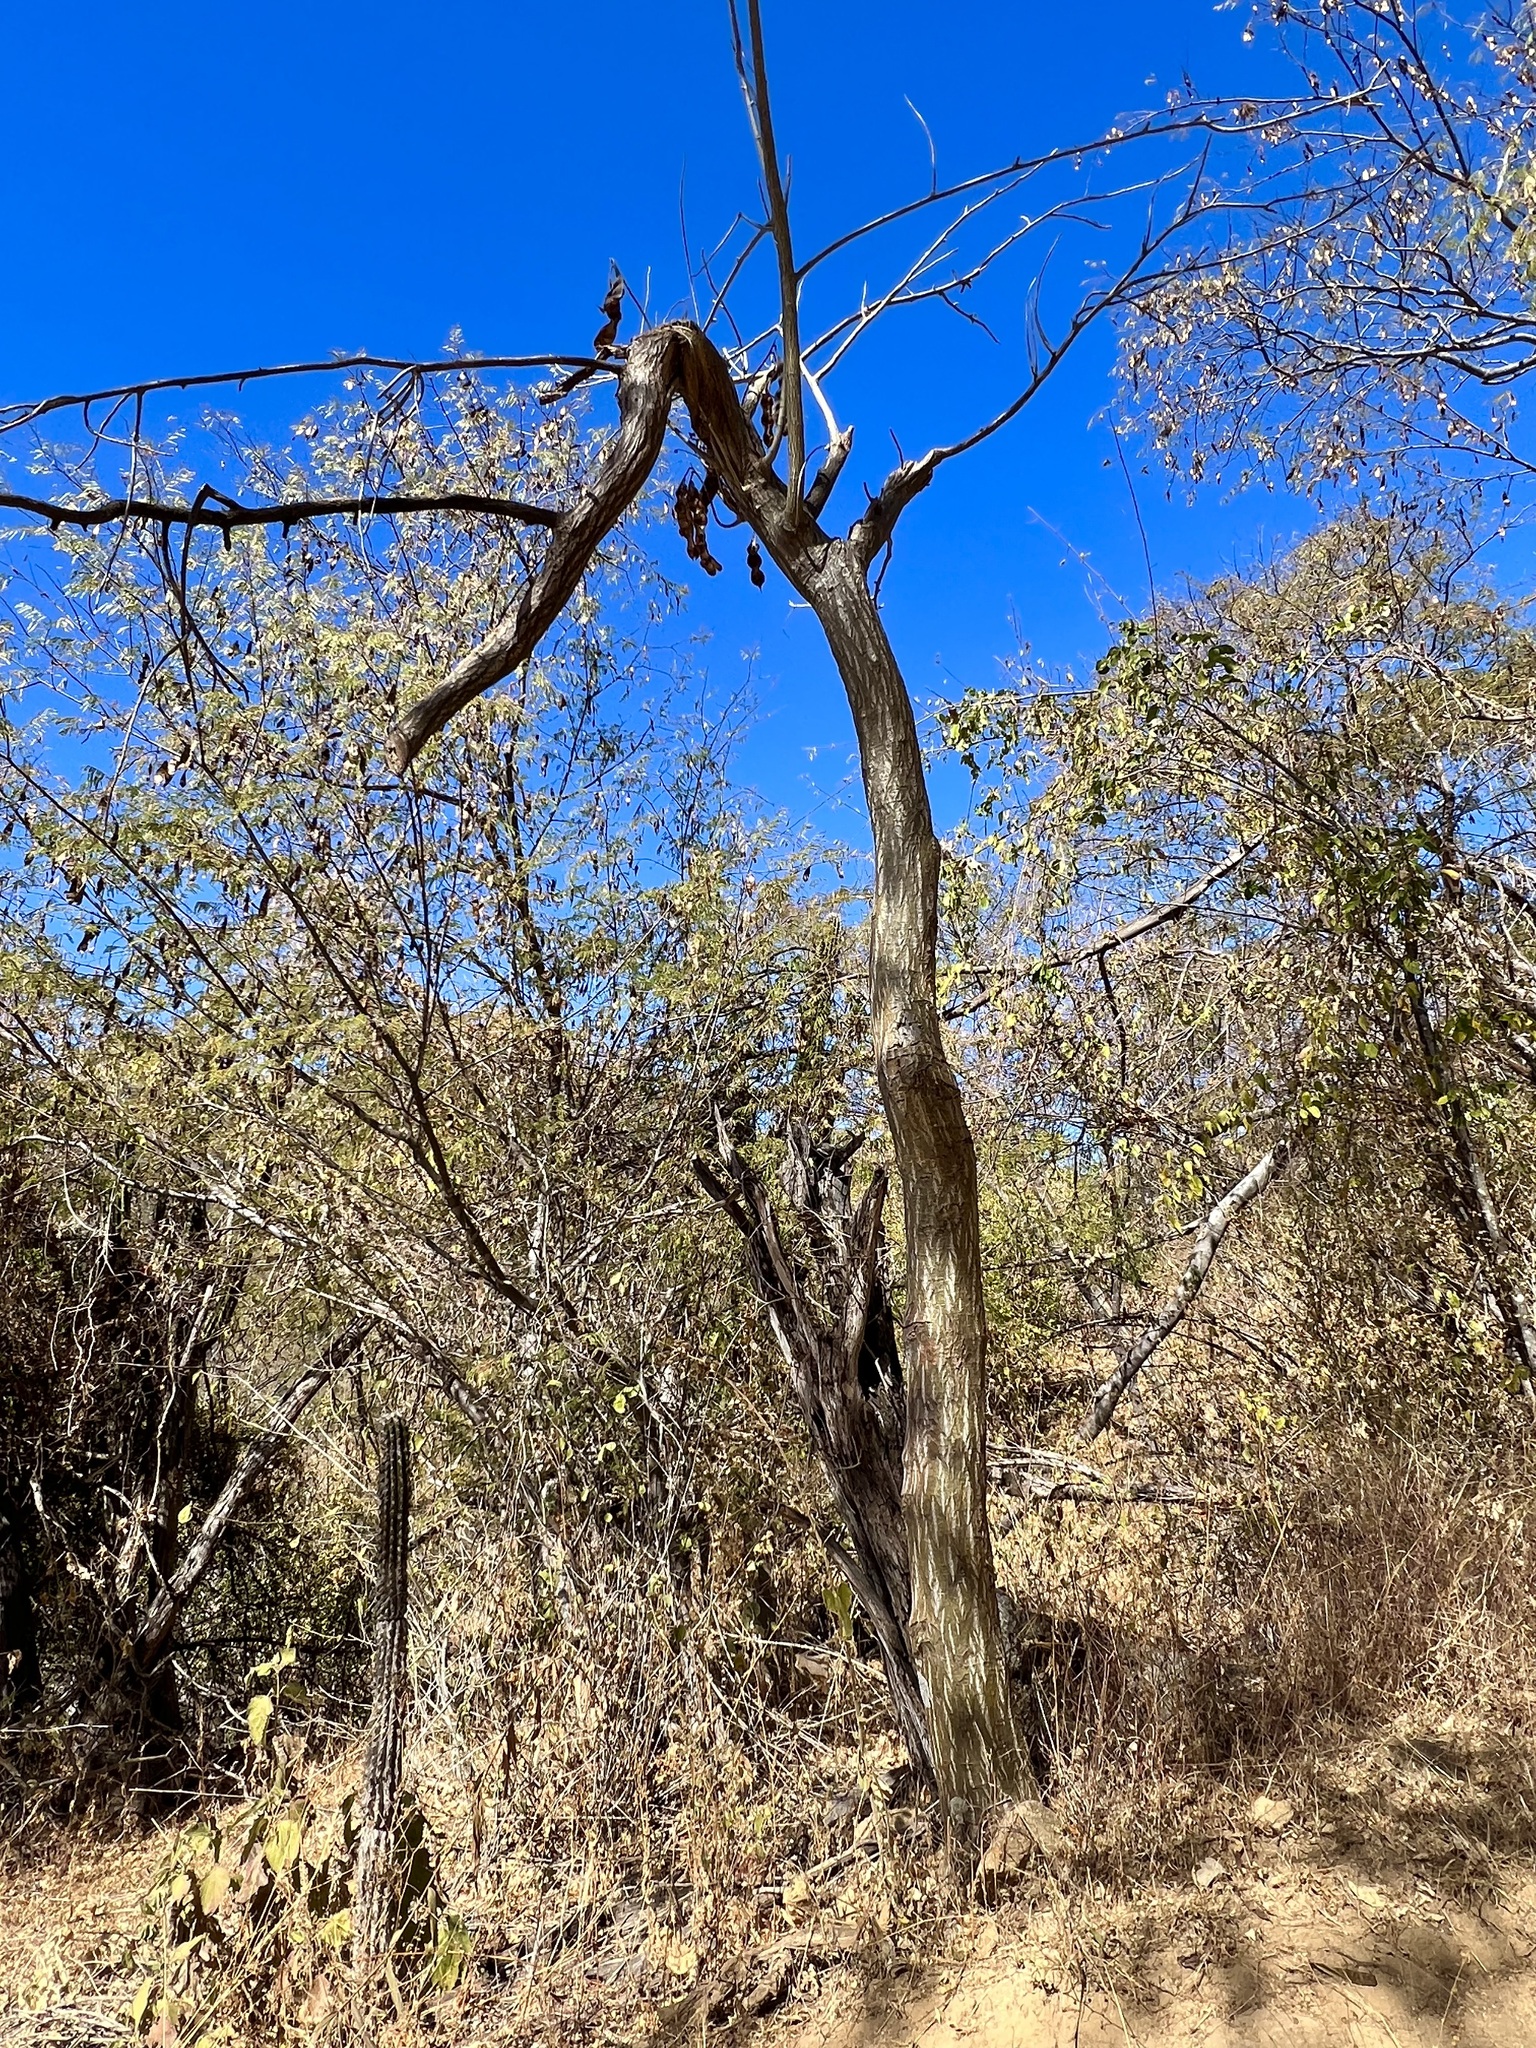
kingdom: Plantae
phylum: Tracheophyta
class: Magnoliopsida
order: Fabales
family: Fabaceae
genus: Erythrina
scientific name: Erythrina flabelliformis
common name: Chilicote
